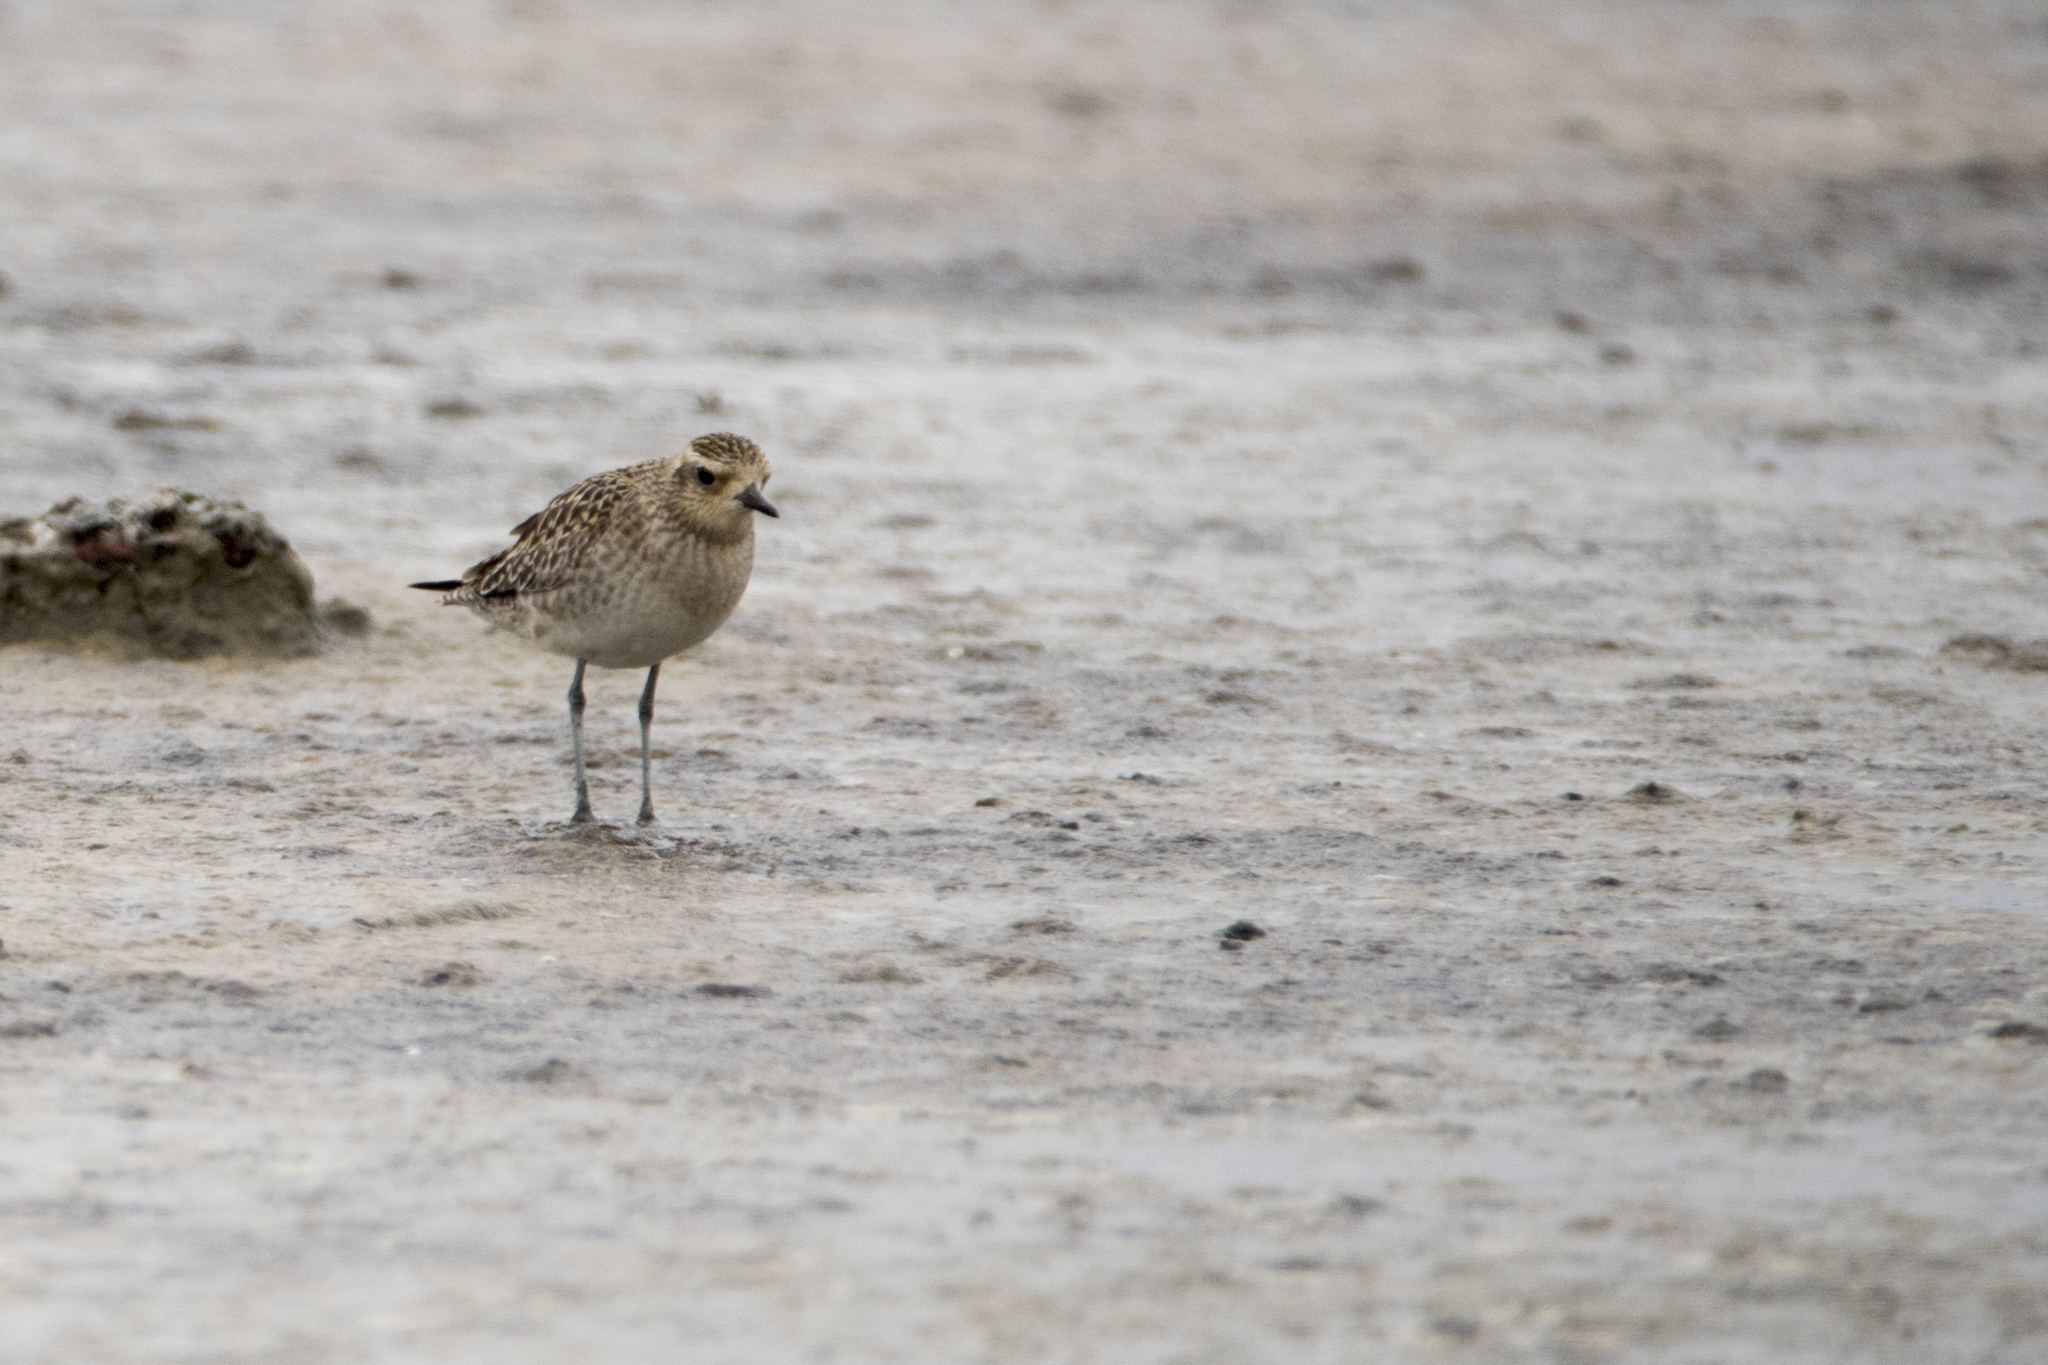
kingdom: Animalia
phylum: Chordata
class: Aves
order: Charadriiformes
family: Charadriidae
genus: Pluvialis
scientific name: Pluvialis fulva
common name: Pacific golden plover
